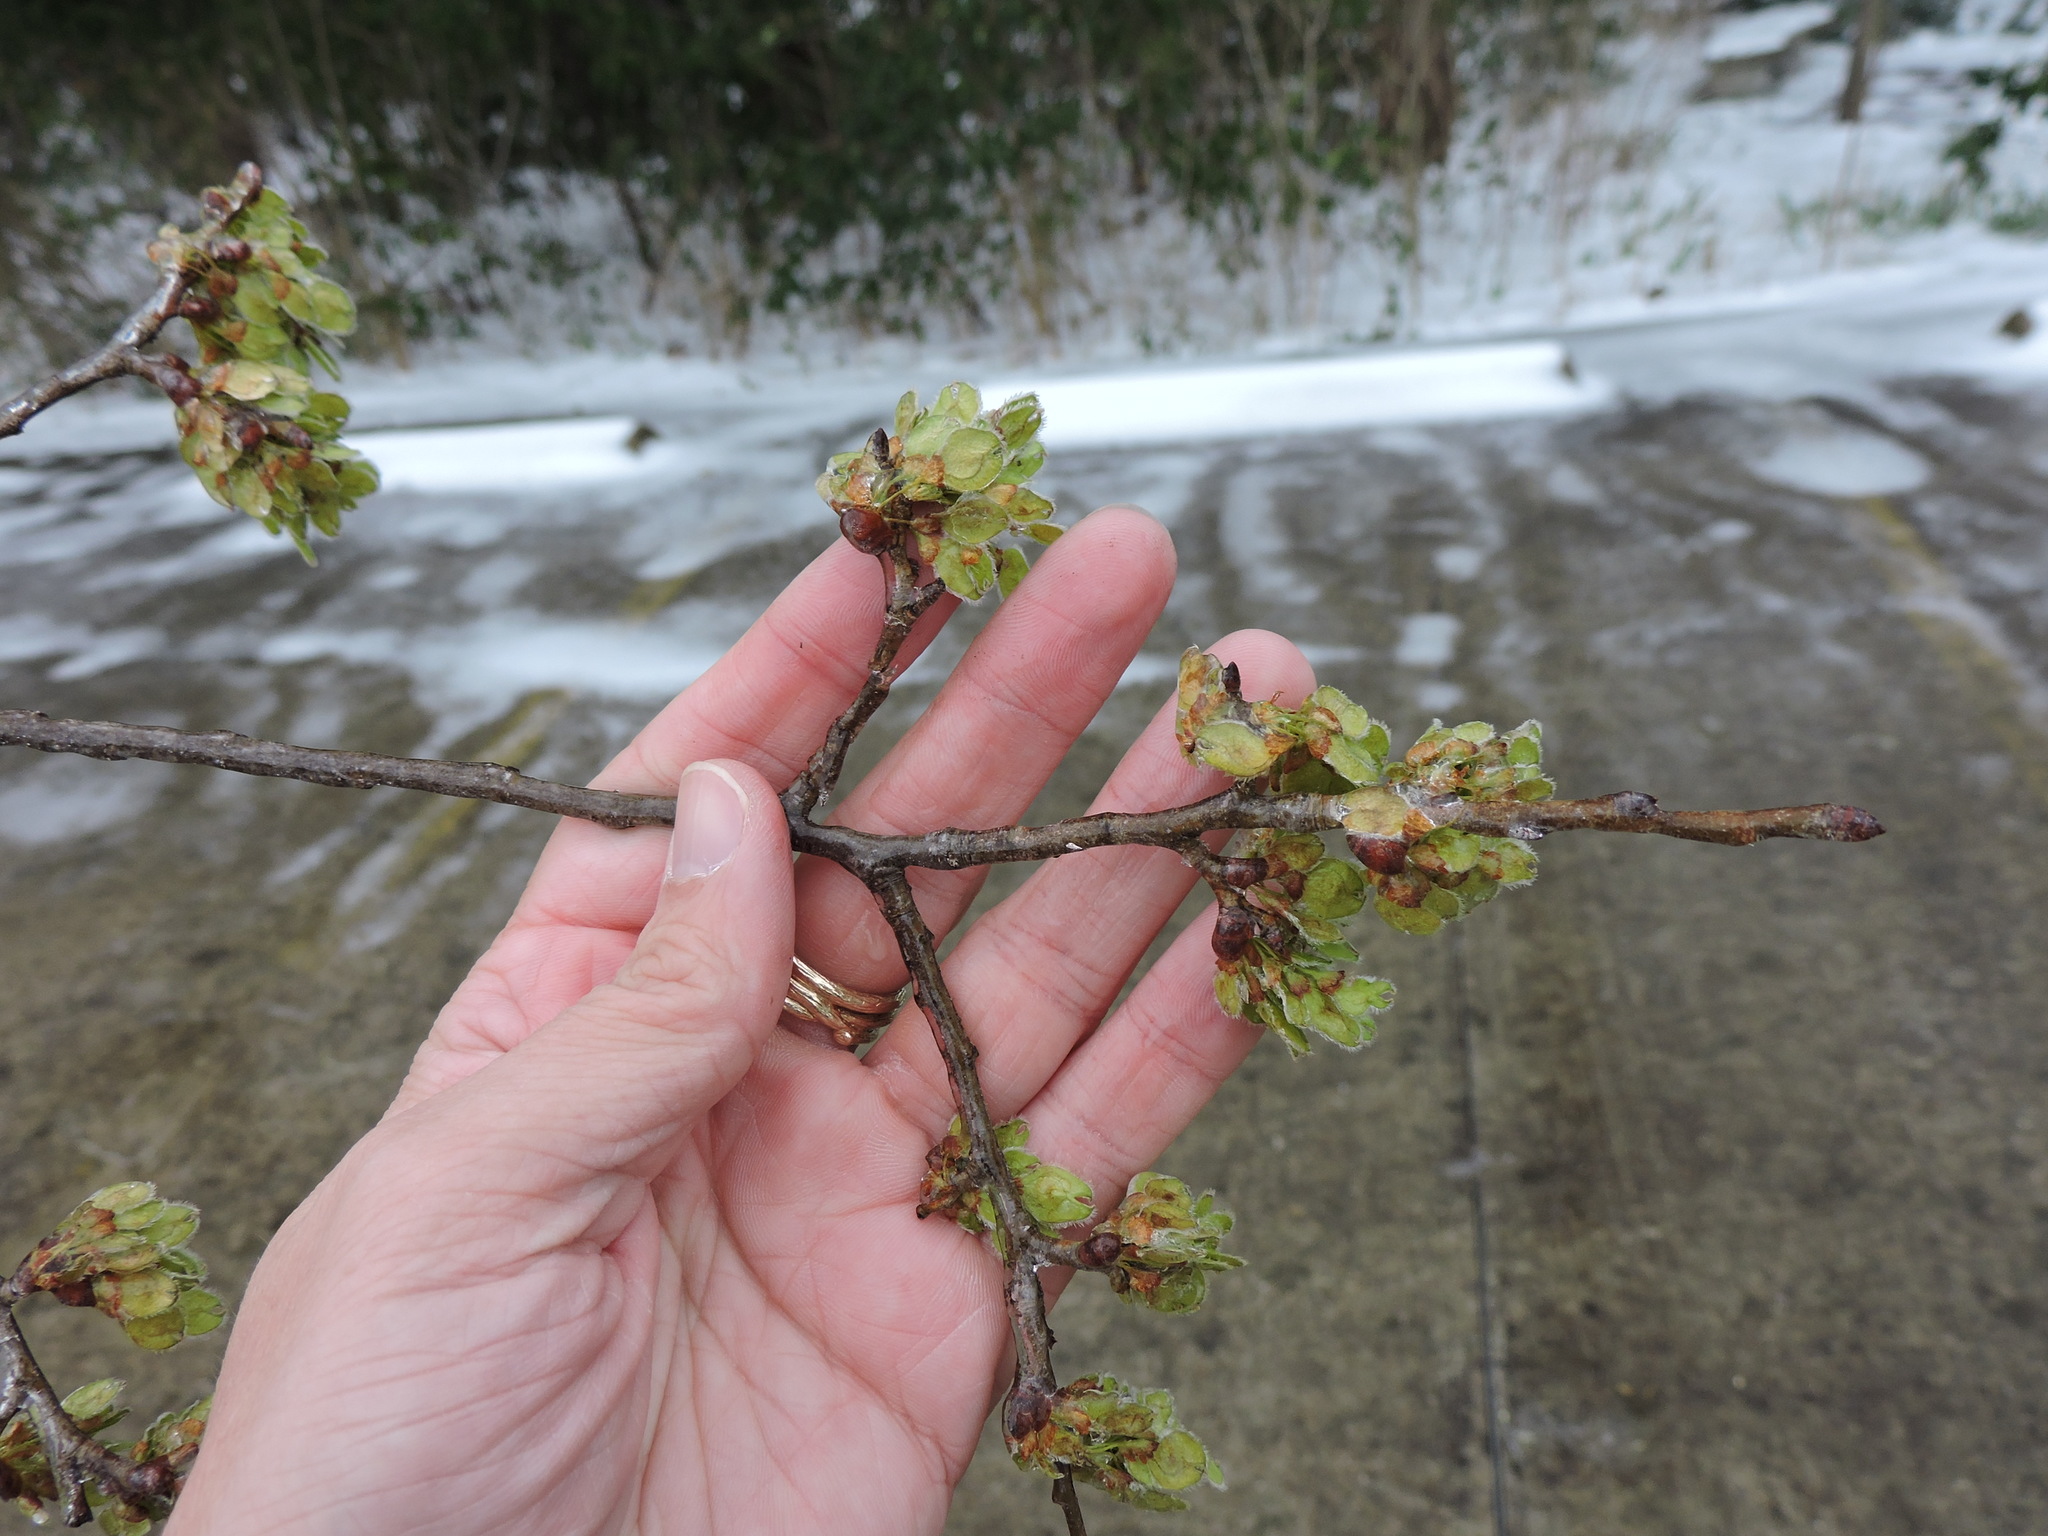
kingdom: Plantae
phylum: Tracheophyta
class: Magnoliopsida
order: Rosales
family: Ulmaceae
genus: Ulmus
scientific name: Ulmus americana
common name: American elm
